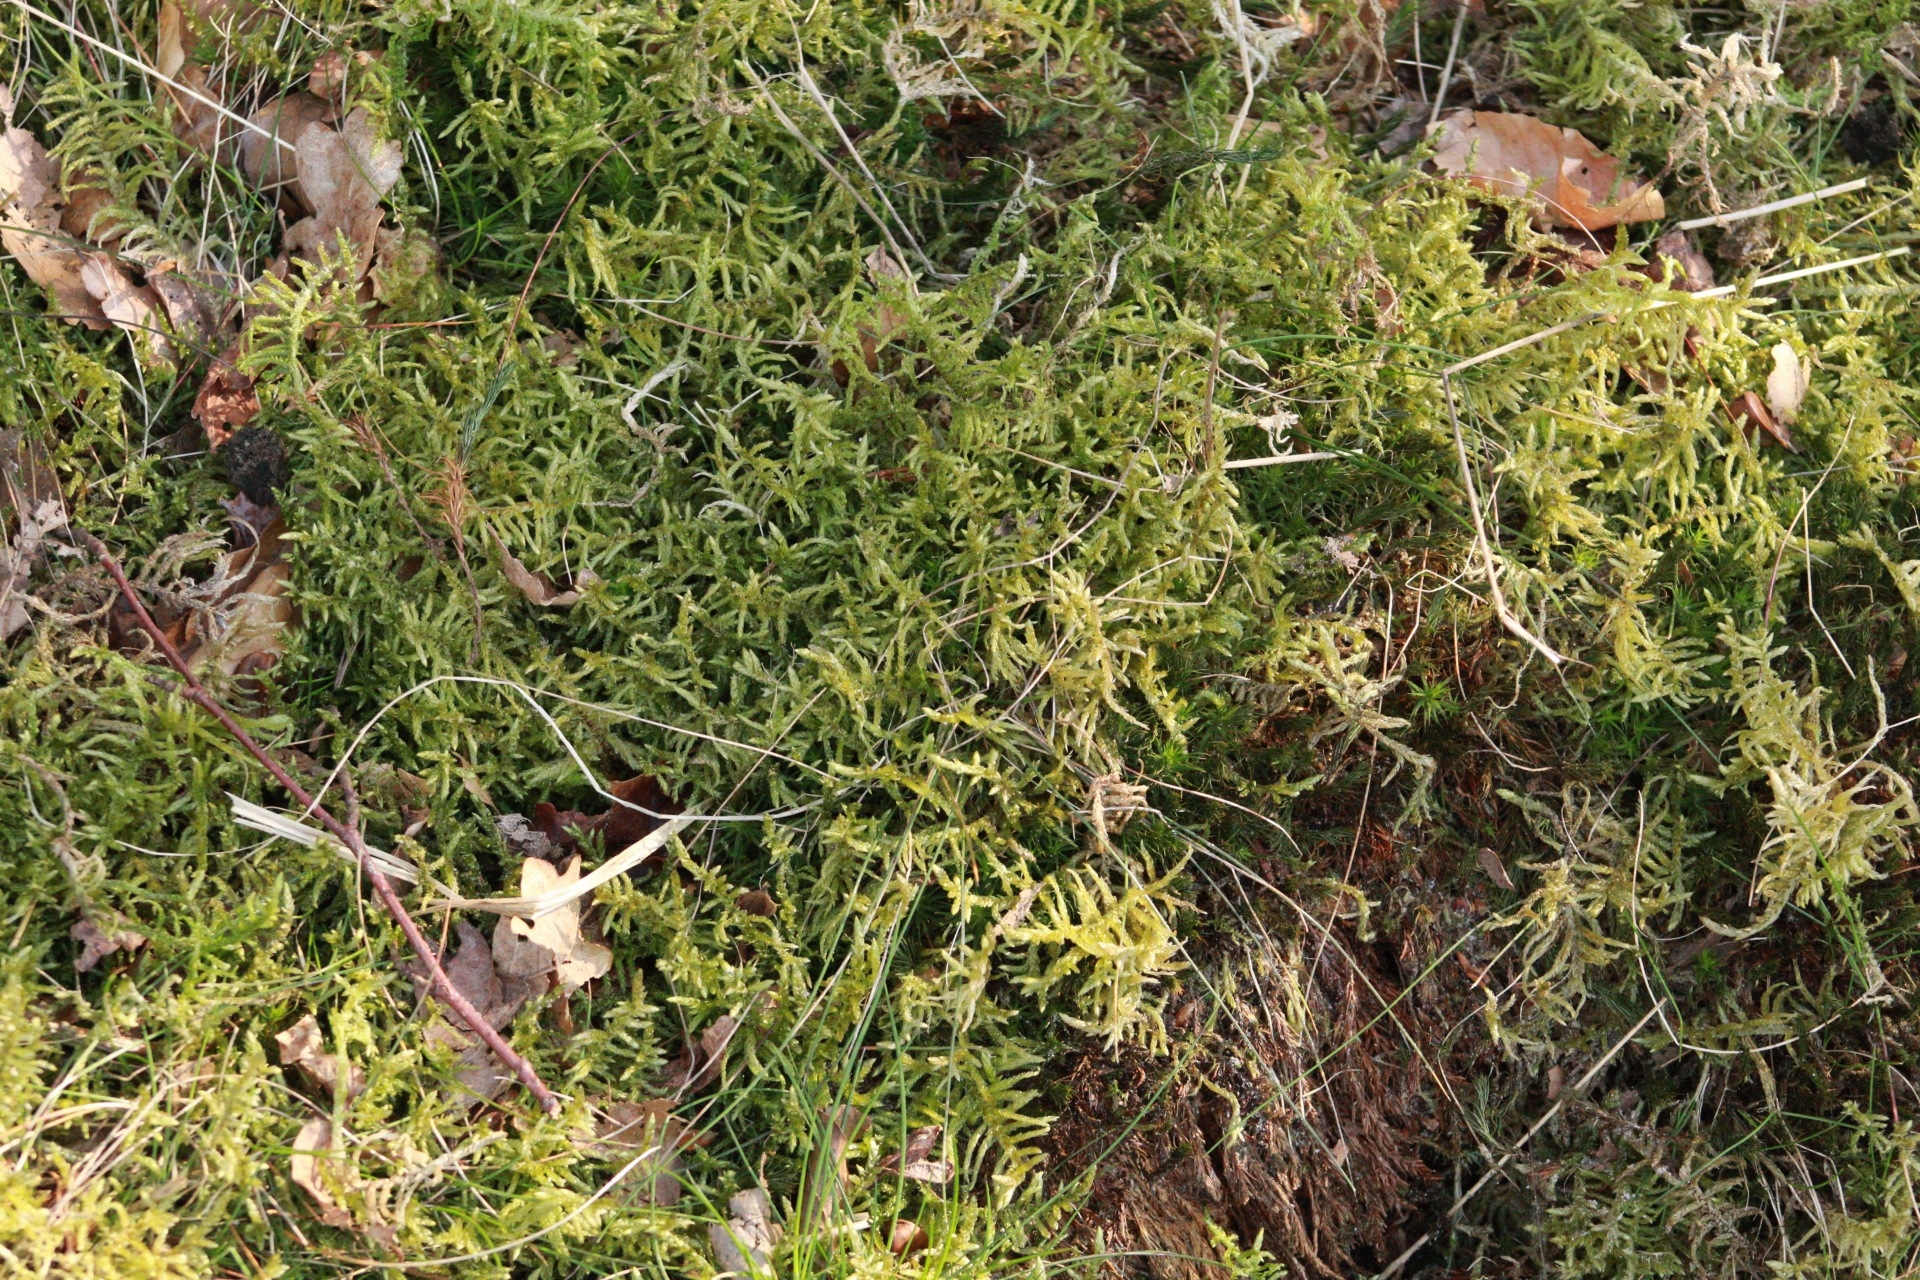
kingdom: Plantae
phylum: Bryophyta
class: Bryopsida
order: Hypnales
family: Brachytheciaceae
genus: Pseudoscleropodium
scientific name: Pseudoscleropodium purum
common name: Neat feather-moss
